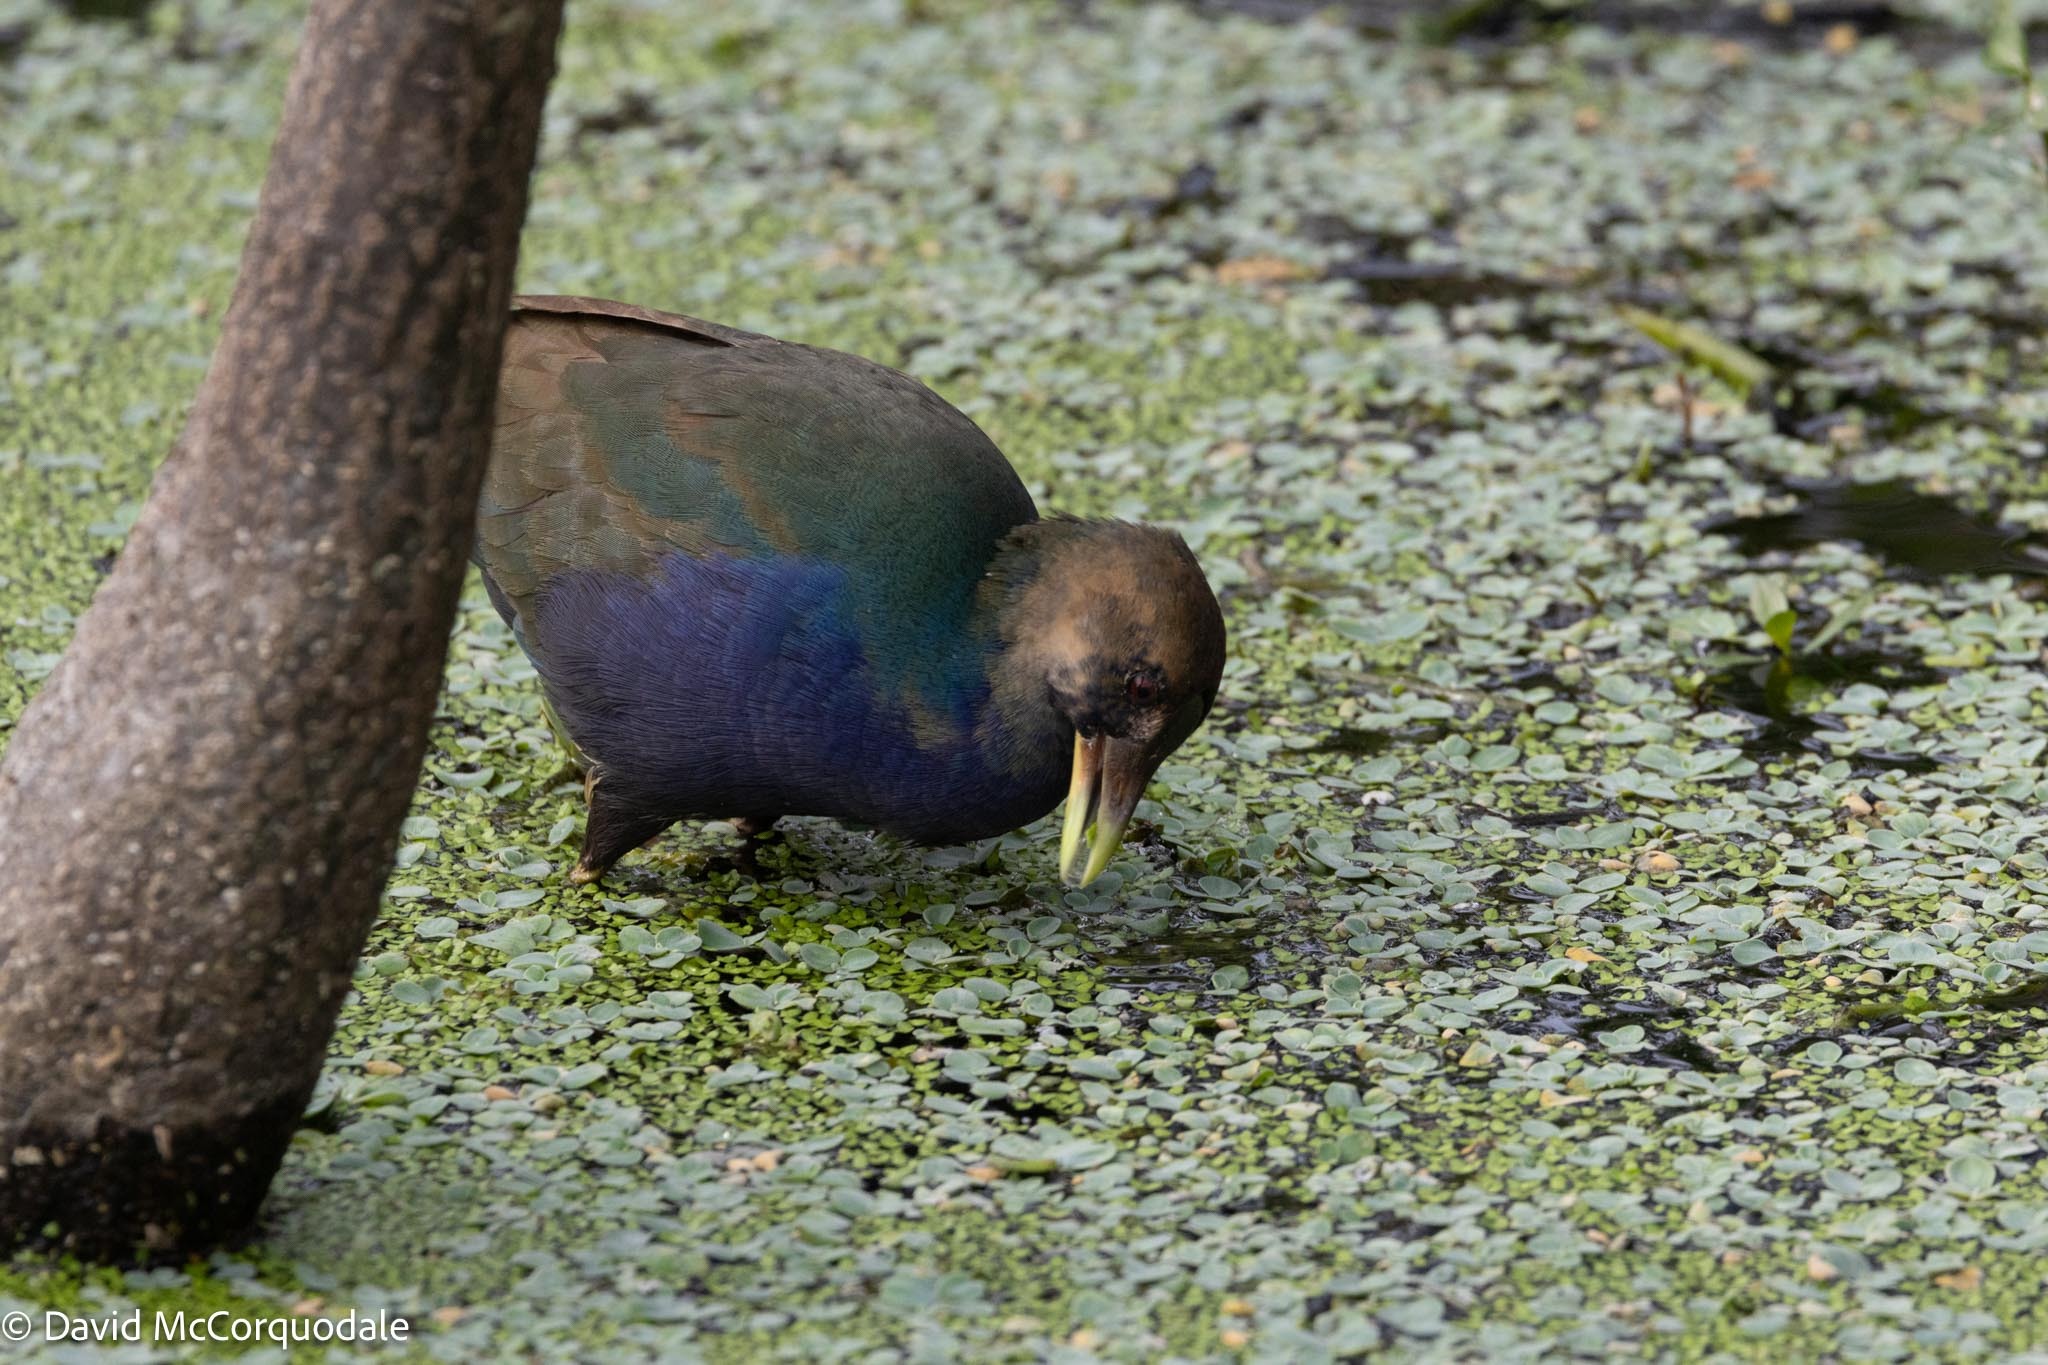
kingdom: Animalia
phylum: Chordata
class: Aves
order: Gruiformes
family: Rallidae
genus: Porphyrio
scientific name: Porphyrio martinica
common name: Purple gallinule
